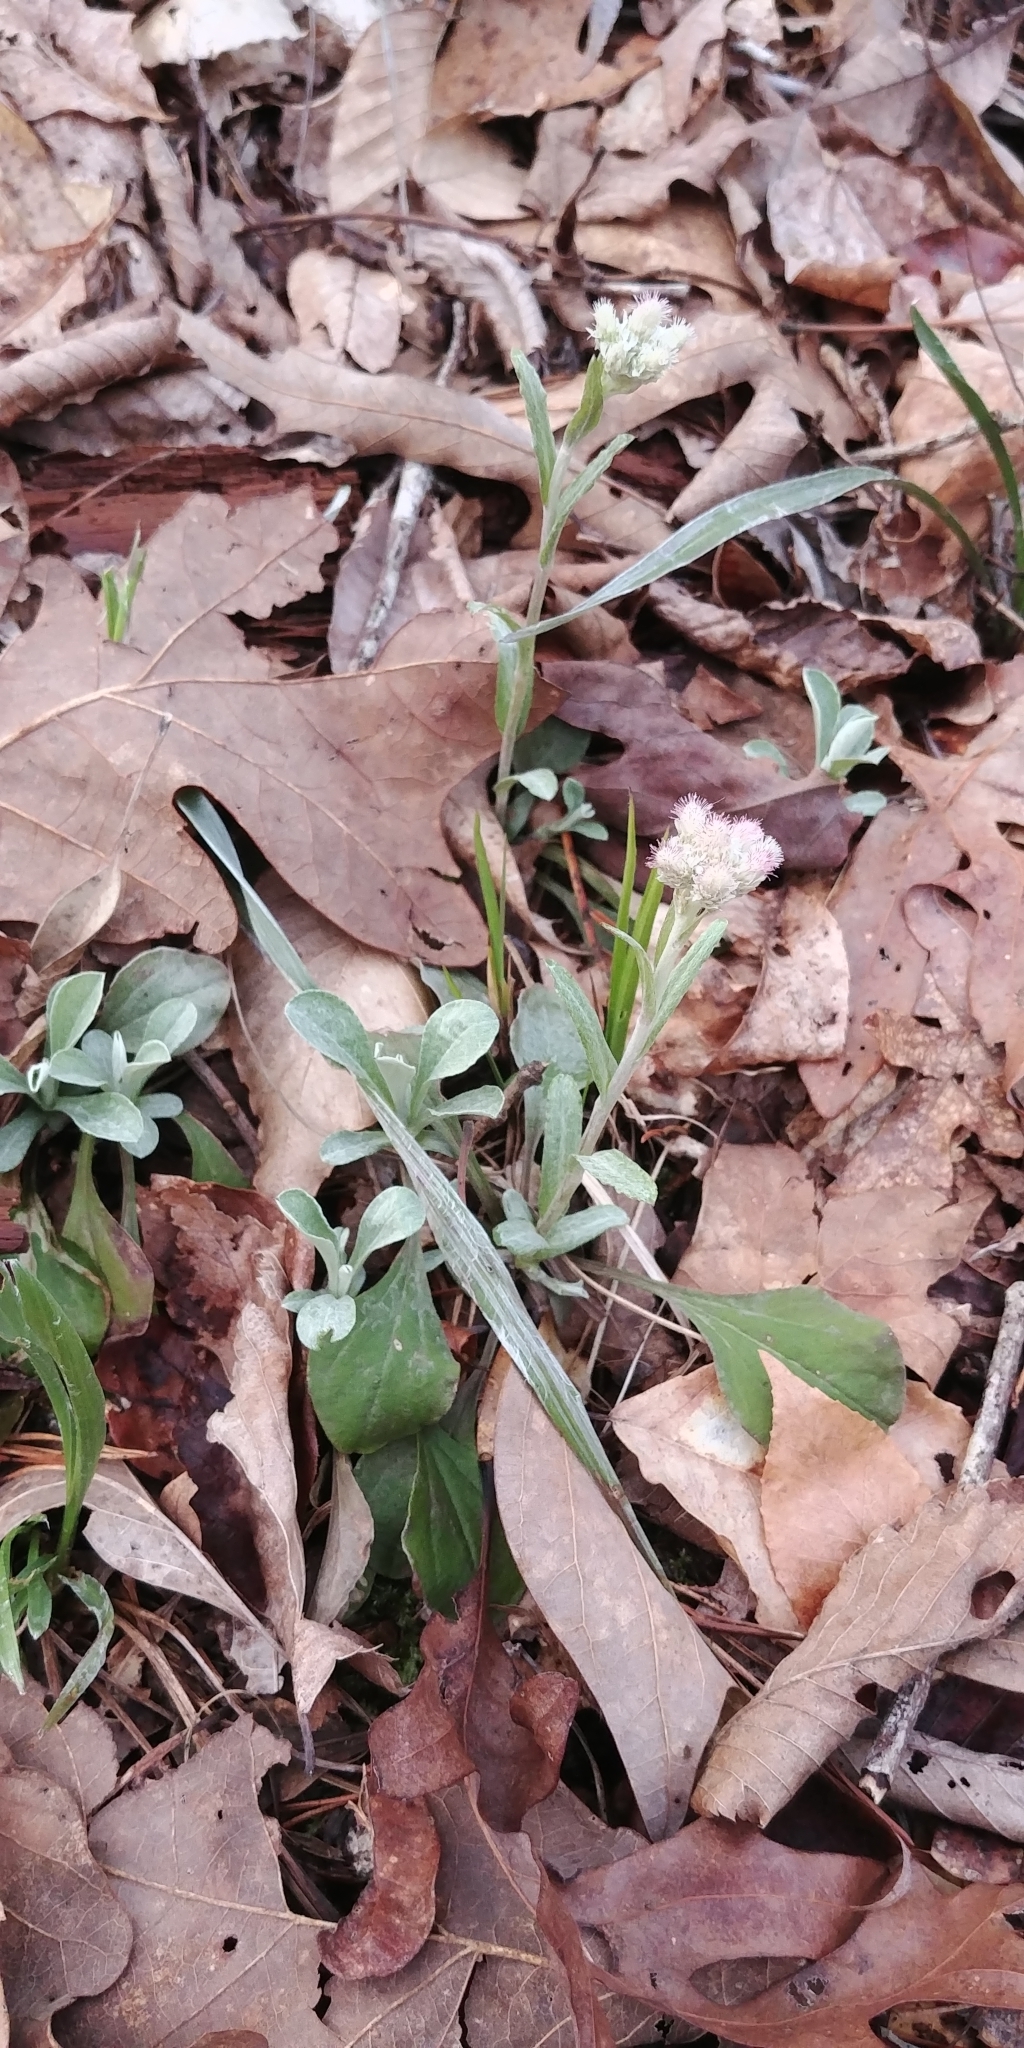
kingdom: Plantae
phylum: Tracheophyta
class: Magnoliopsida
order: Asterales
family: Asteraceae
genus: Antennaria
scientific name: Antennaria plantaginifolia
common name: Plantain-leaved pussytoes
